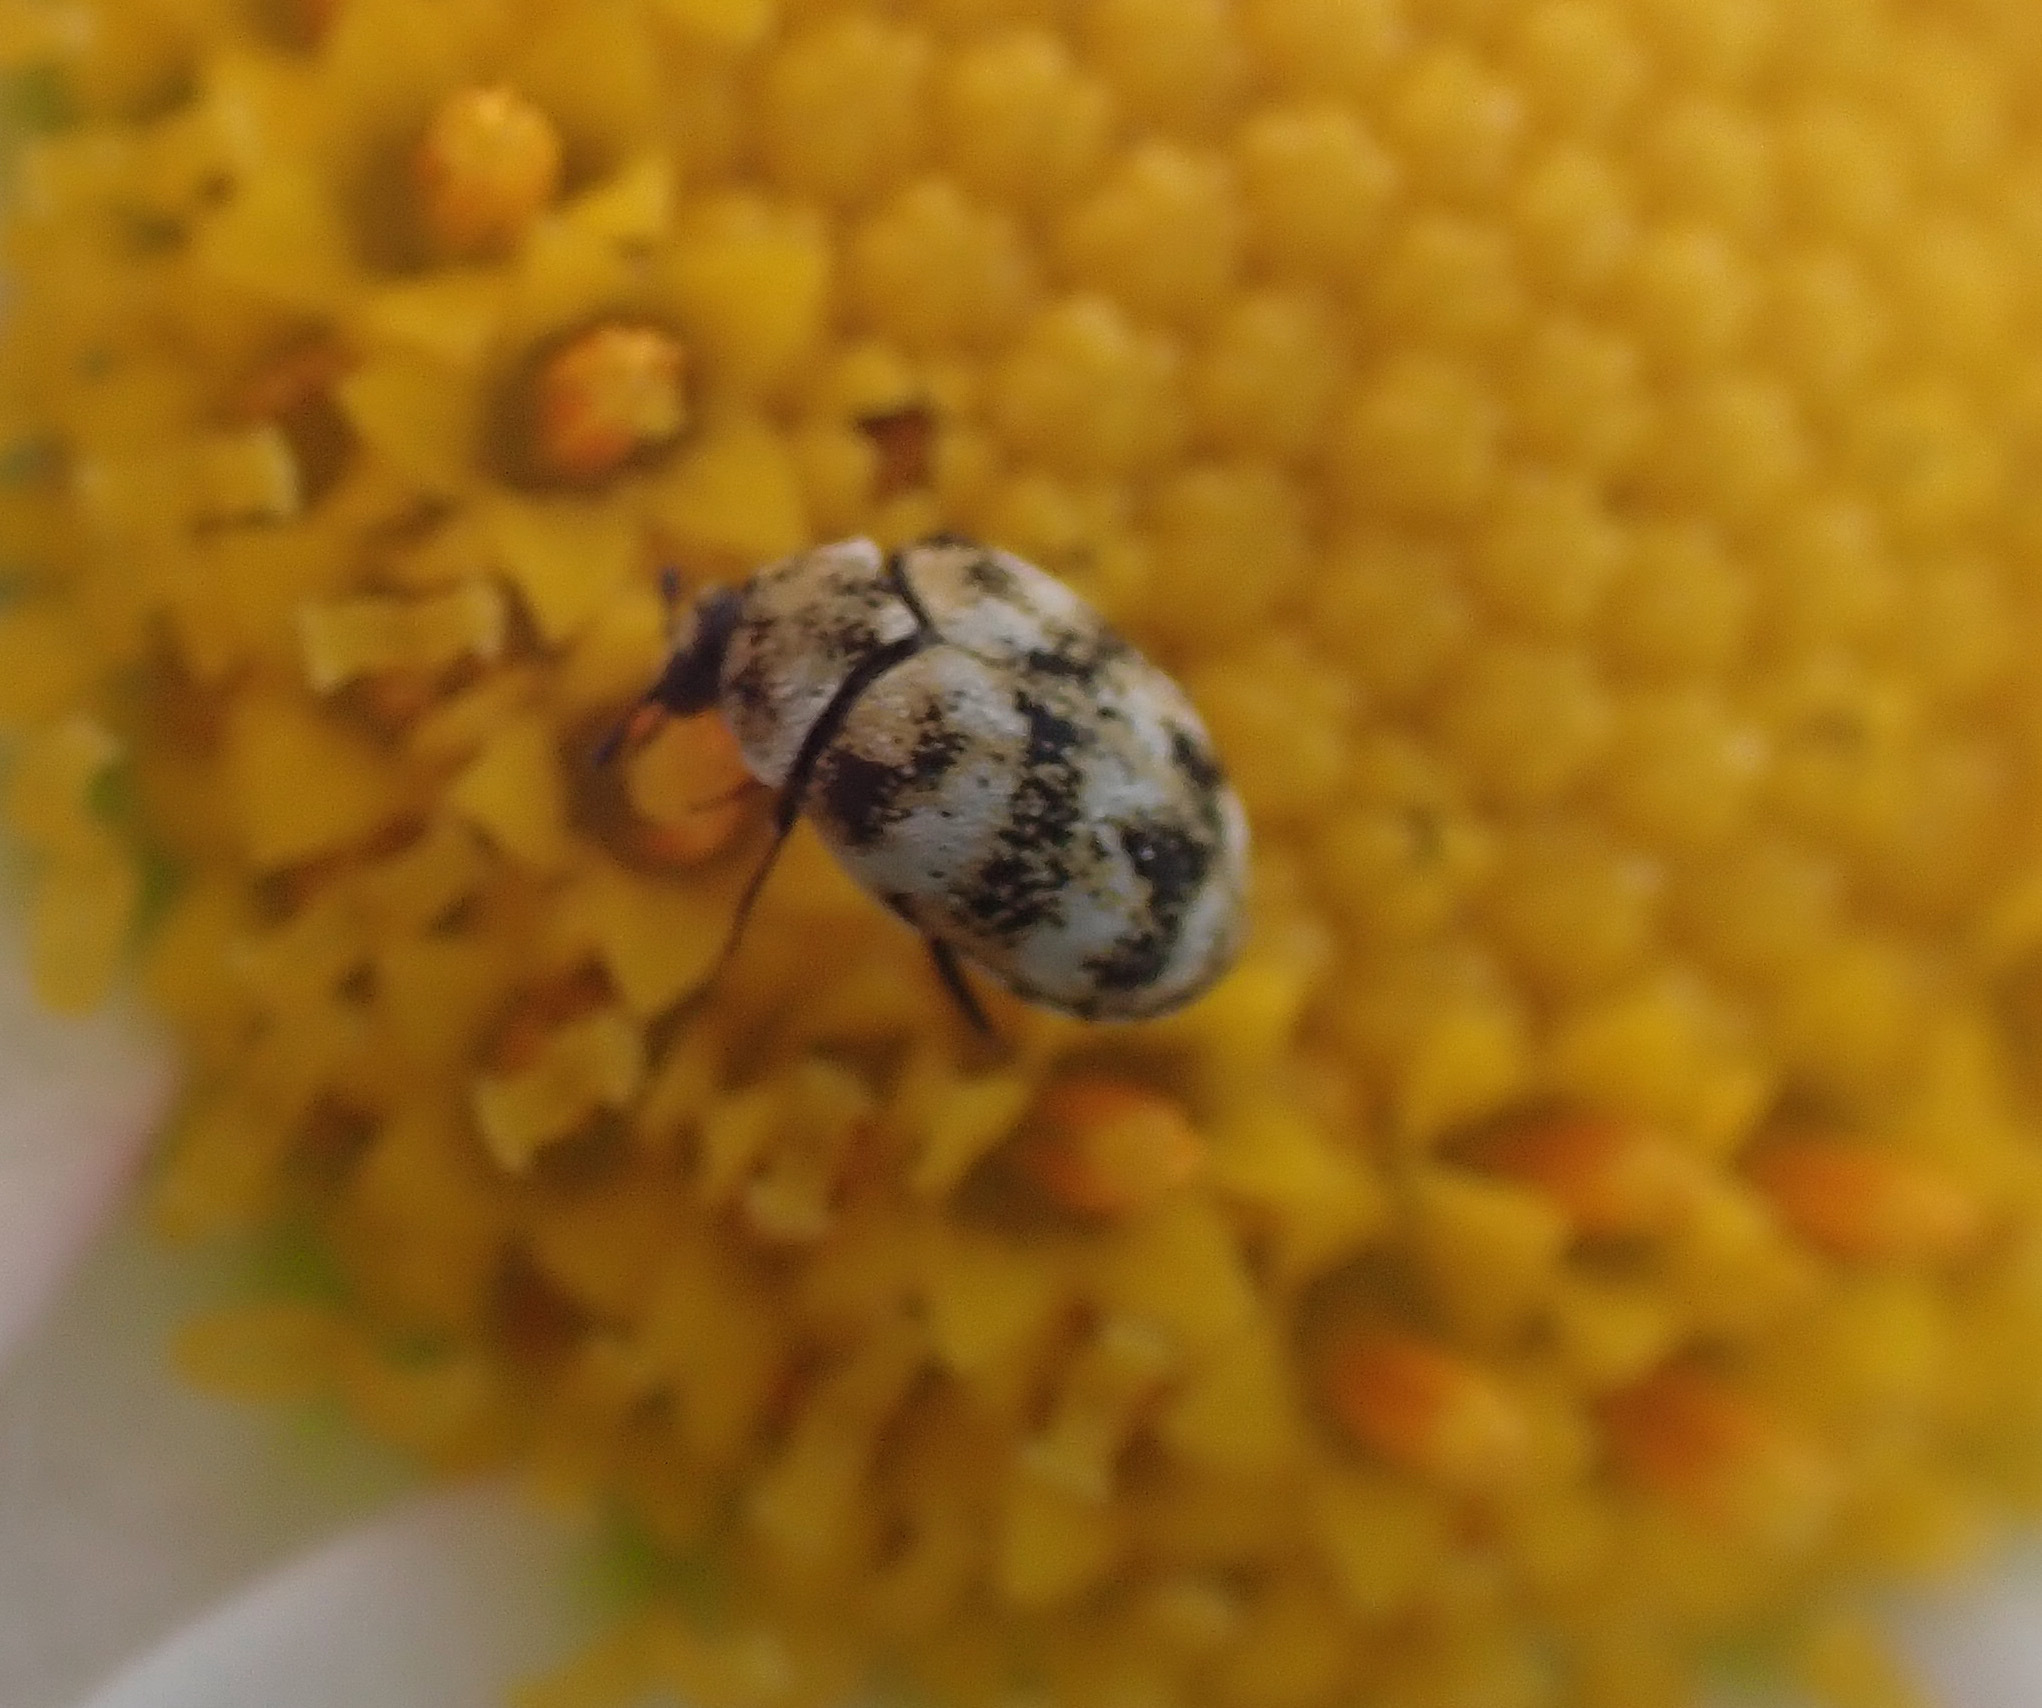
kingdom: Animalia
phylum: Arthropoda
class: Insecta
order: Coleoptera
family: Dermestidae
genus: Anthrenus
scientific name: Anthrenus verbasci
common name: Varied carpet beetle
